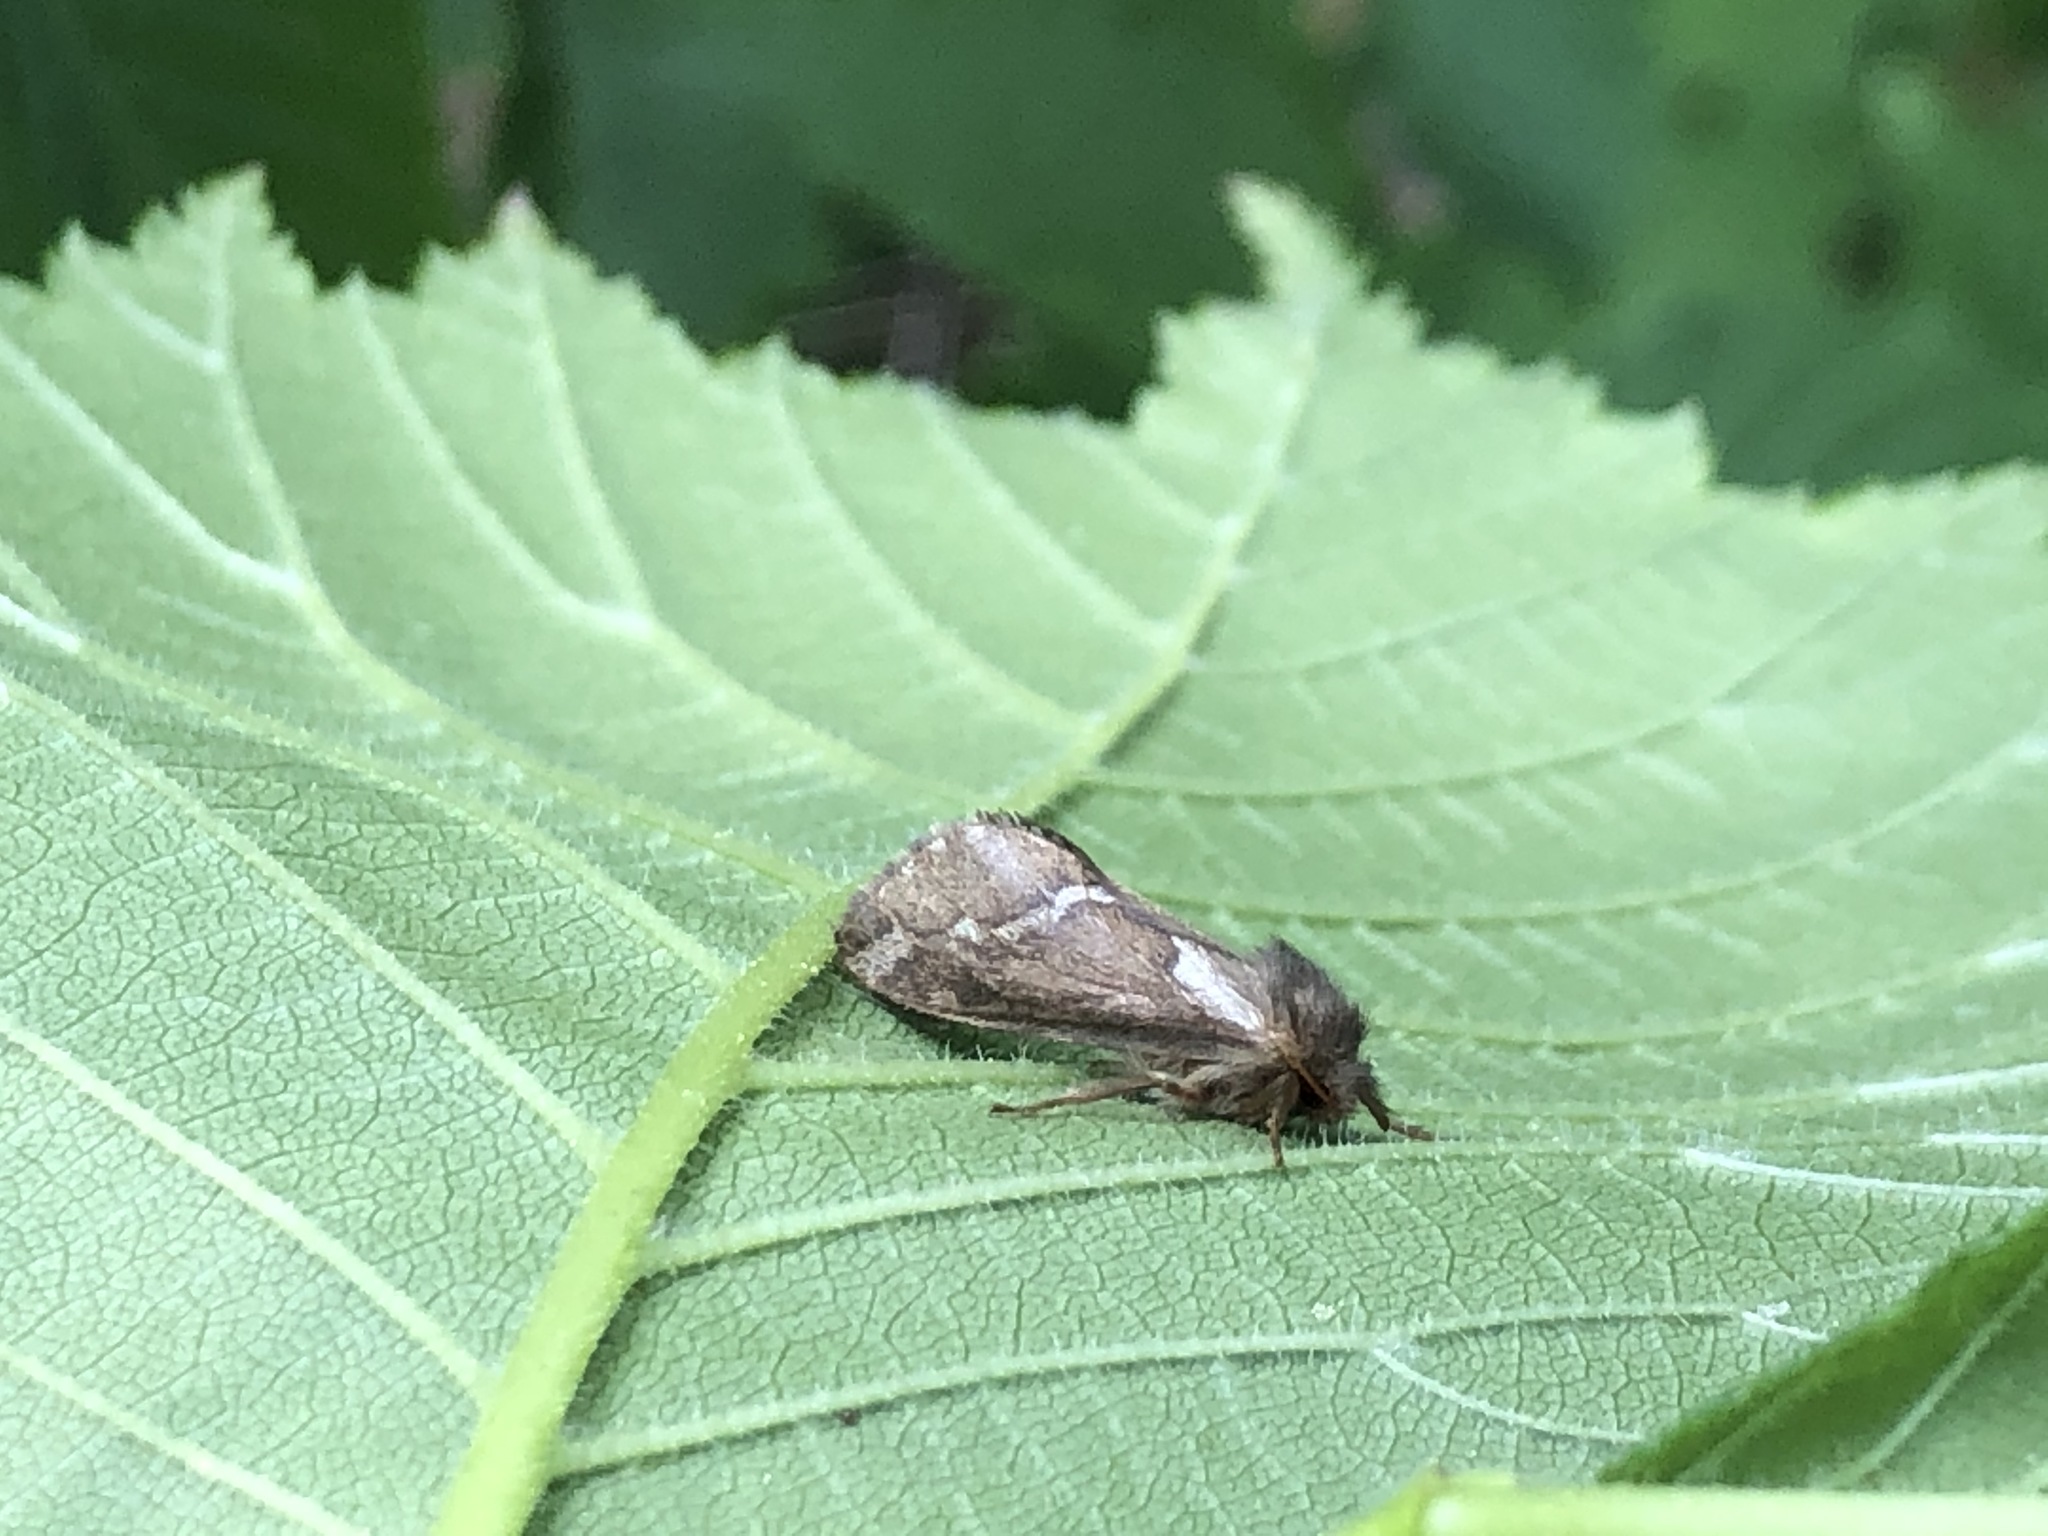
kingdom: Animalia
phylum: Arthropoda
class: Insecta
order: Lepidoptera
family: Hepialidae
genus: Korscheltellus
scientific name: Korscheltellus lupulina
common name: Common swift
